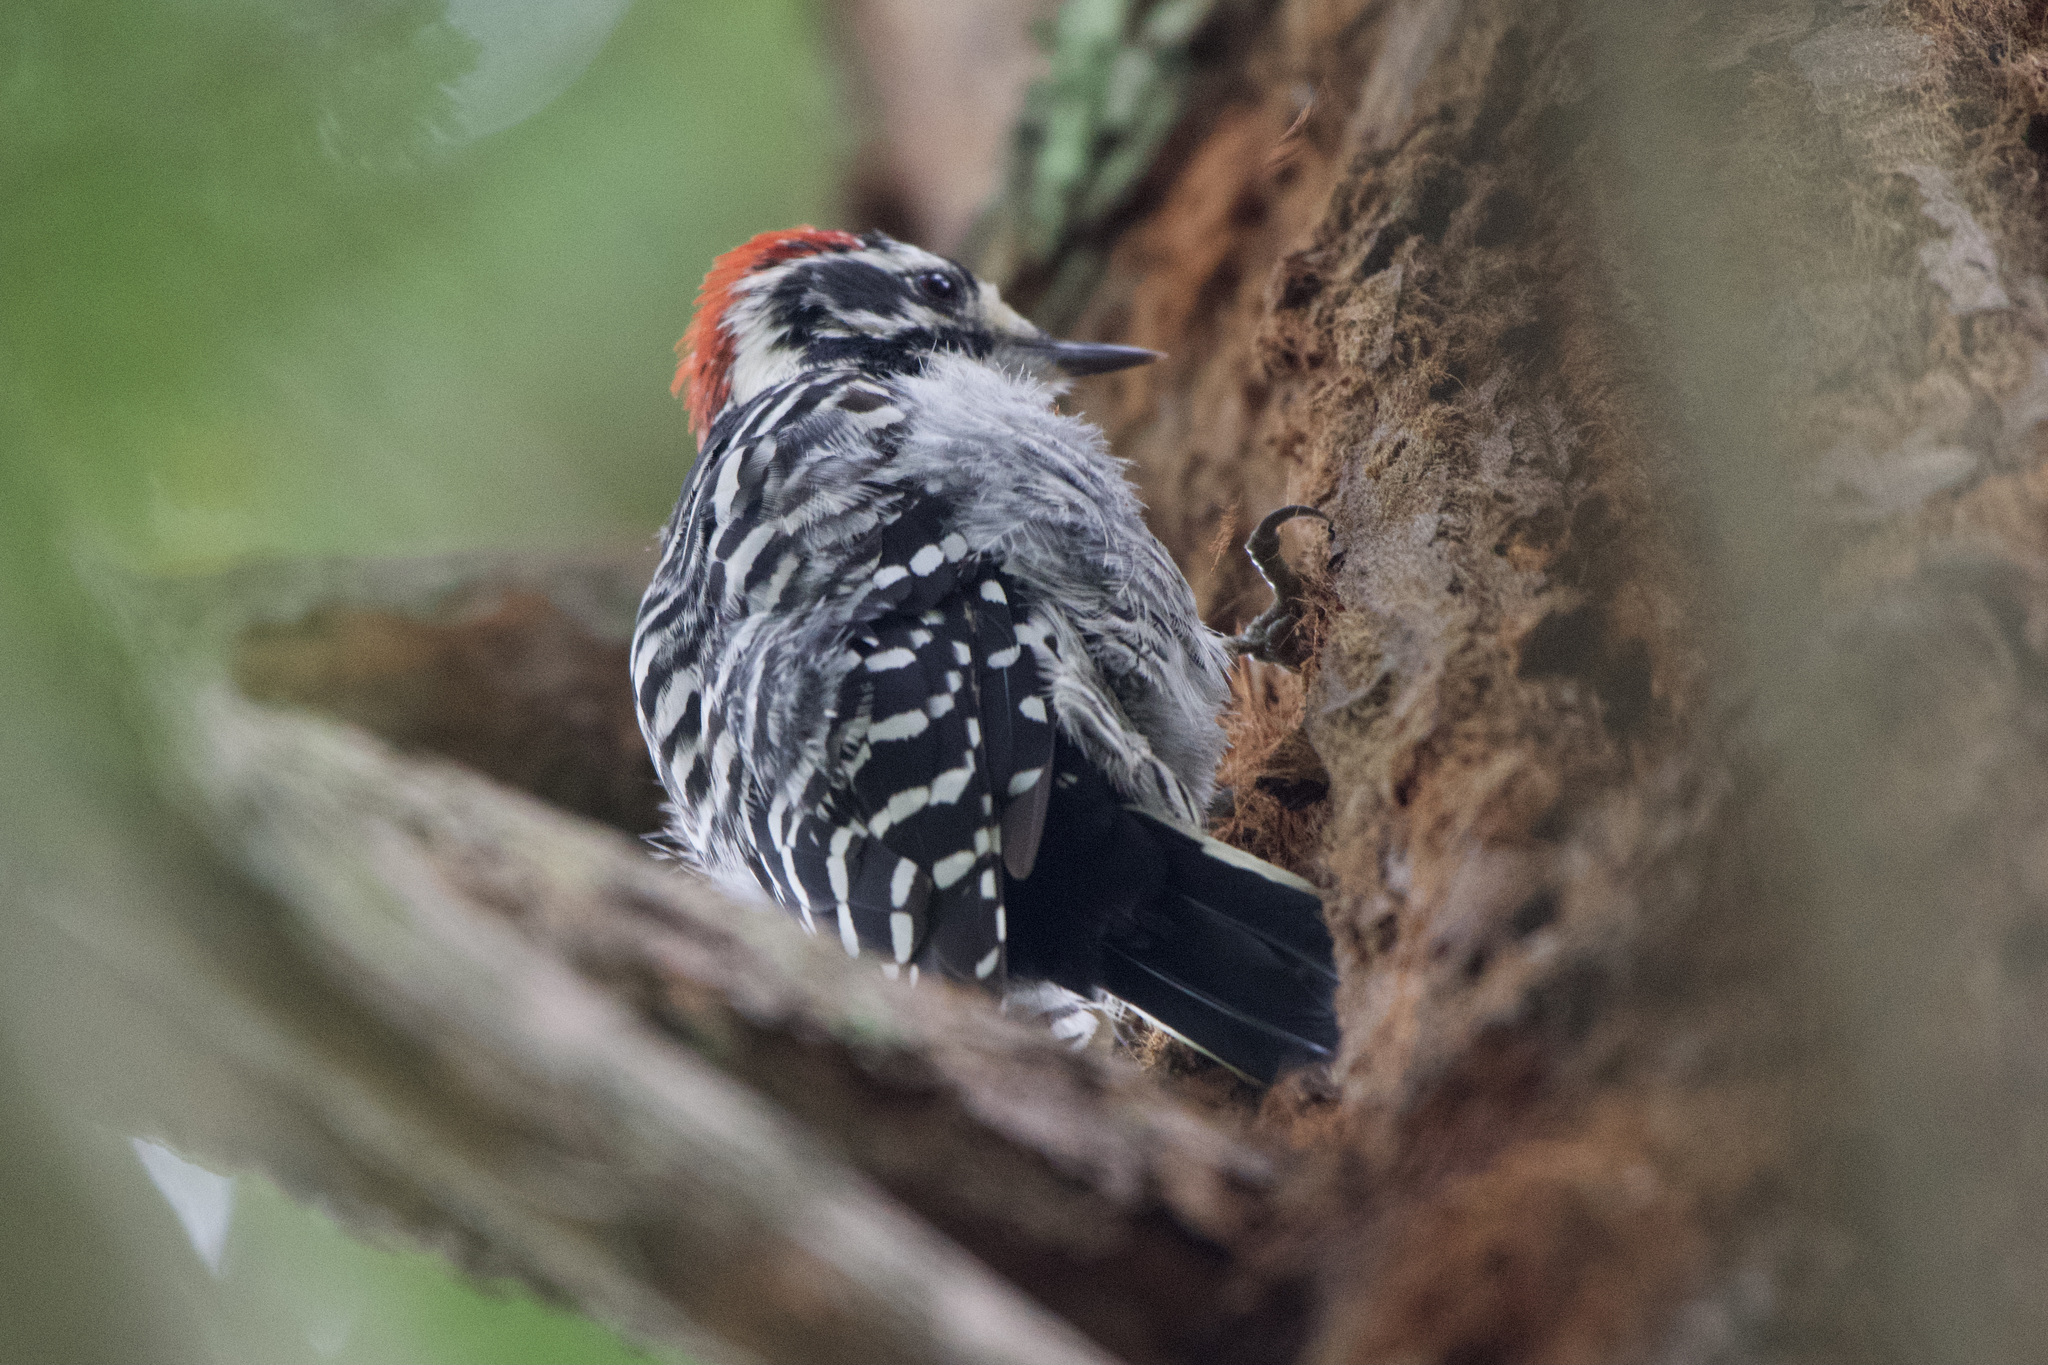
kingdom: Animalia
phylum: Chordata
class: Aves
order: Piciformes
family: Picidae
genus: Dryobates
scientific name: Dryobates nuttallii
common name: Nuttall's woodpecker
